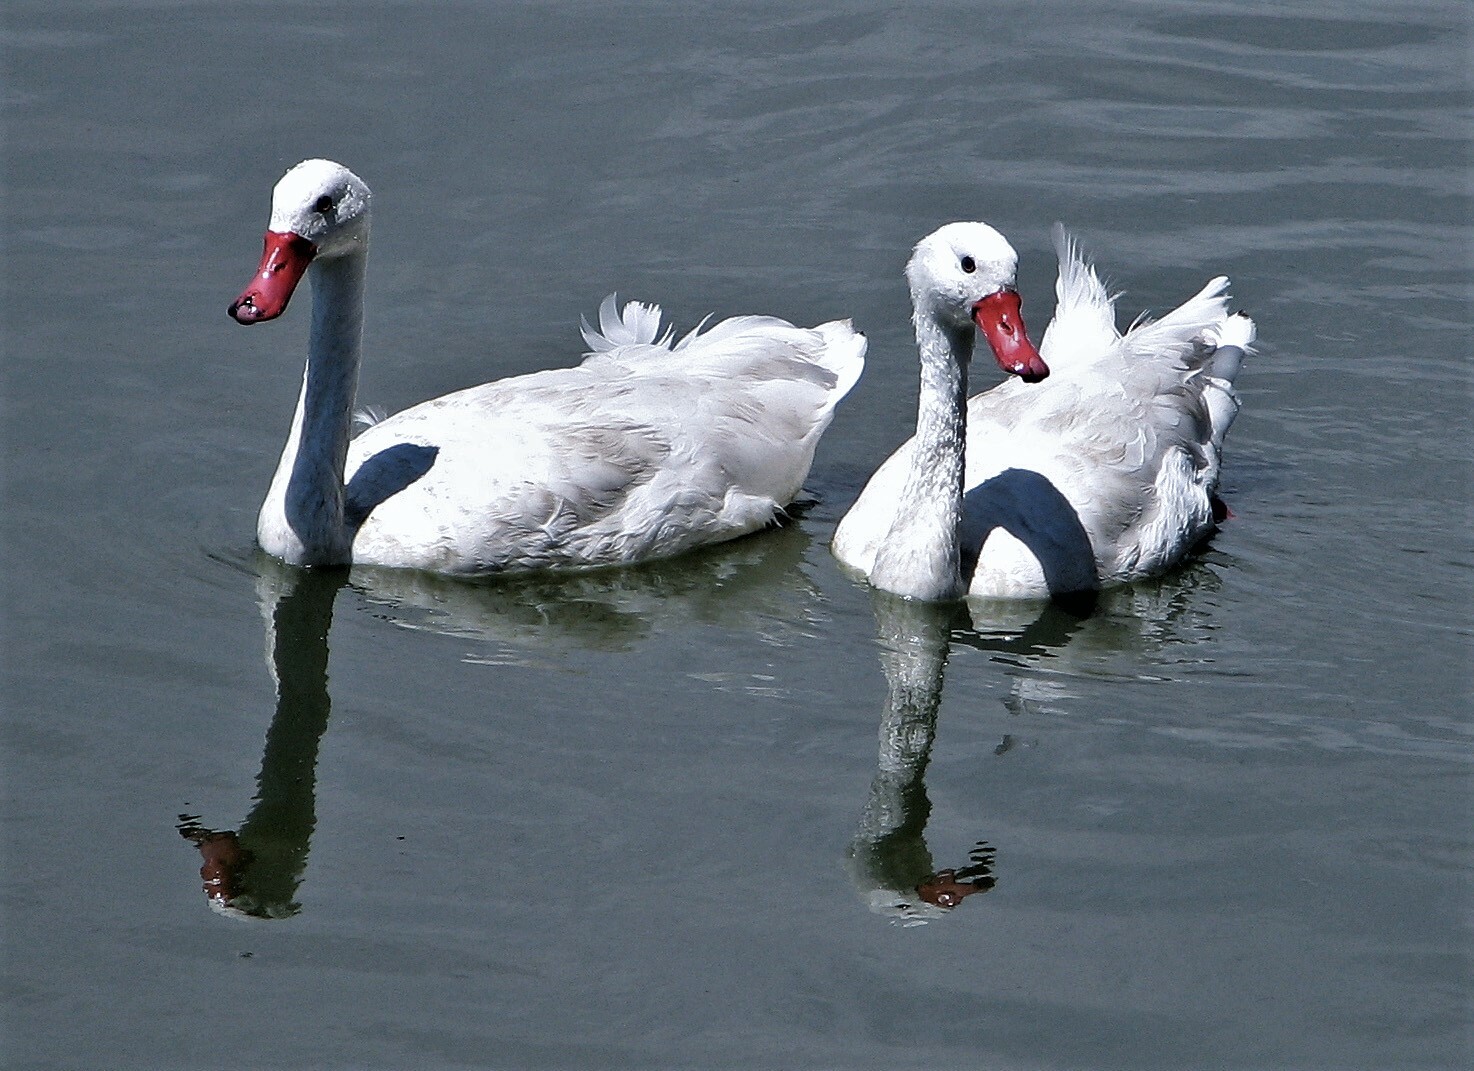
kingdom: Animalia
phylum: Chordata
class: Aves
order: Anseriformes
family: Anatidae
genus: Coscoroba
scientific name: Coscoroba coscoroba
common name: Coscoroba swan
